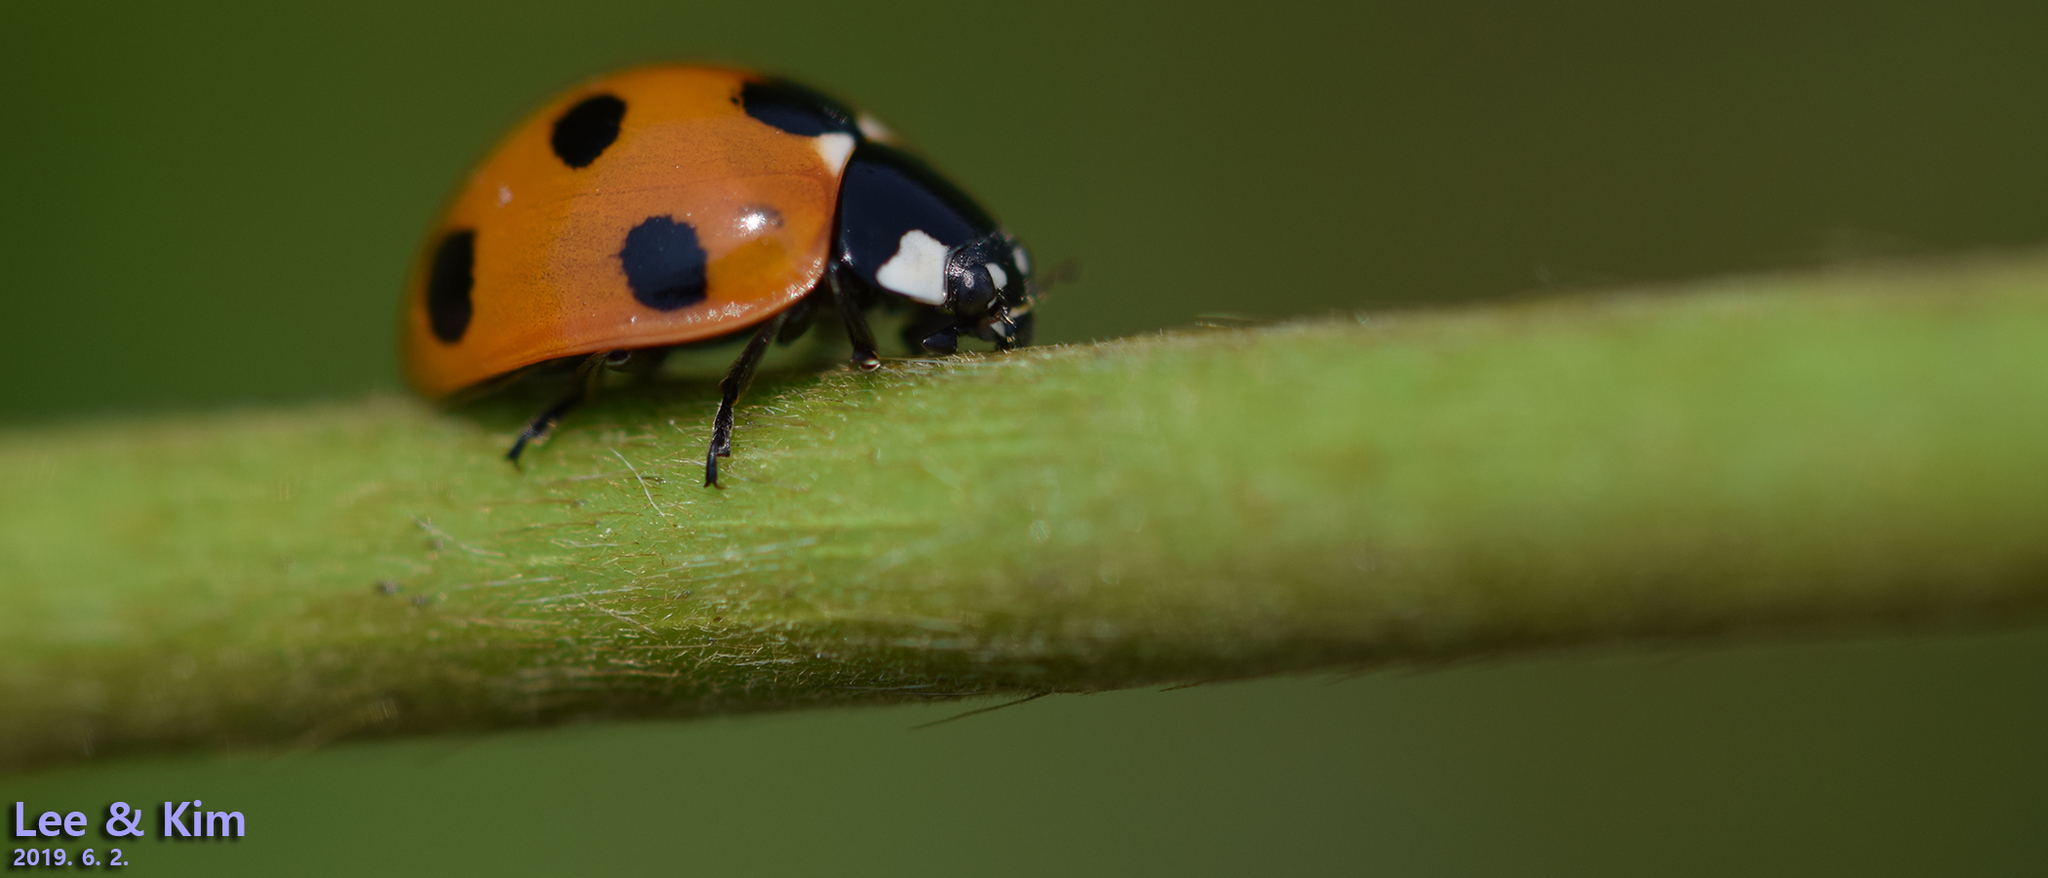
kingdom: Animalia
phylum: Arthropoda
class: Insecta
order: Coleoptera
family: Coccinellidae
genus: Coccinella
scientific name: Coccinella septempunctata
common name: Sevenspotted lady beetle
